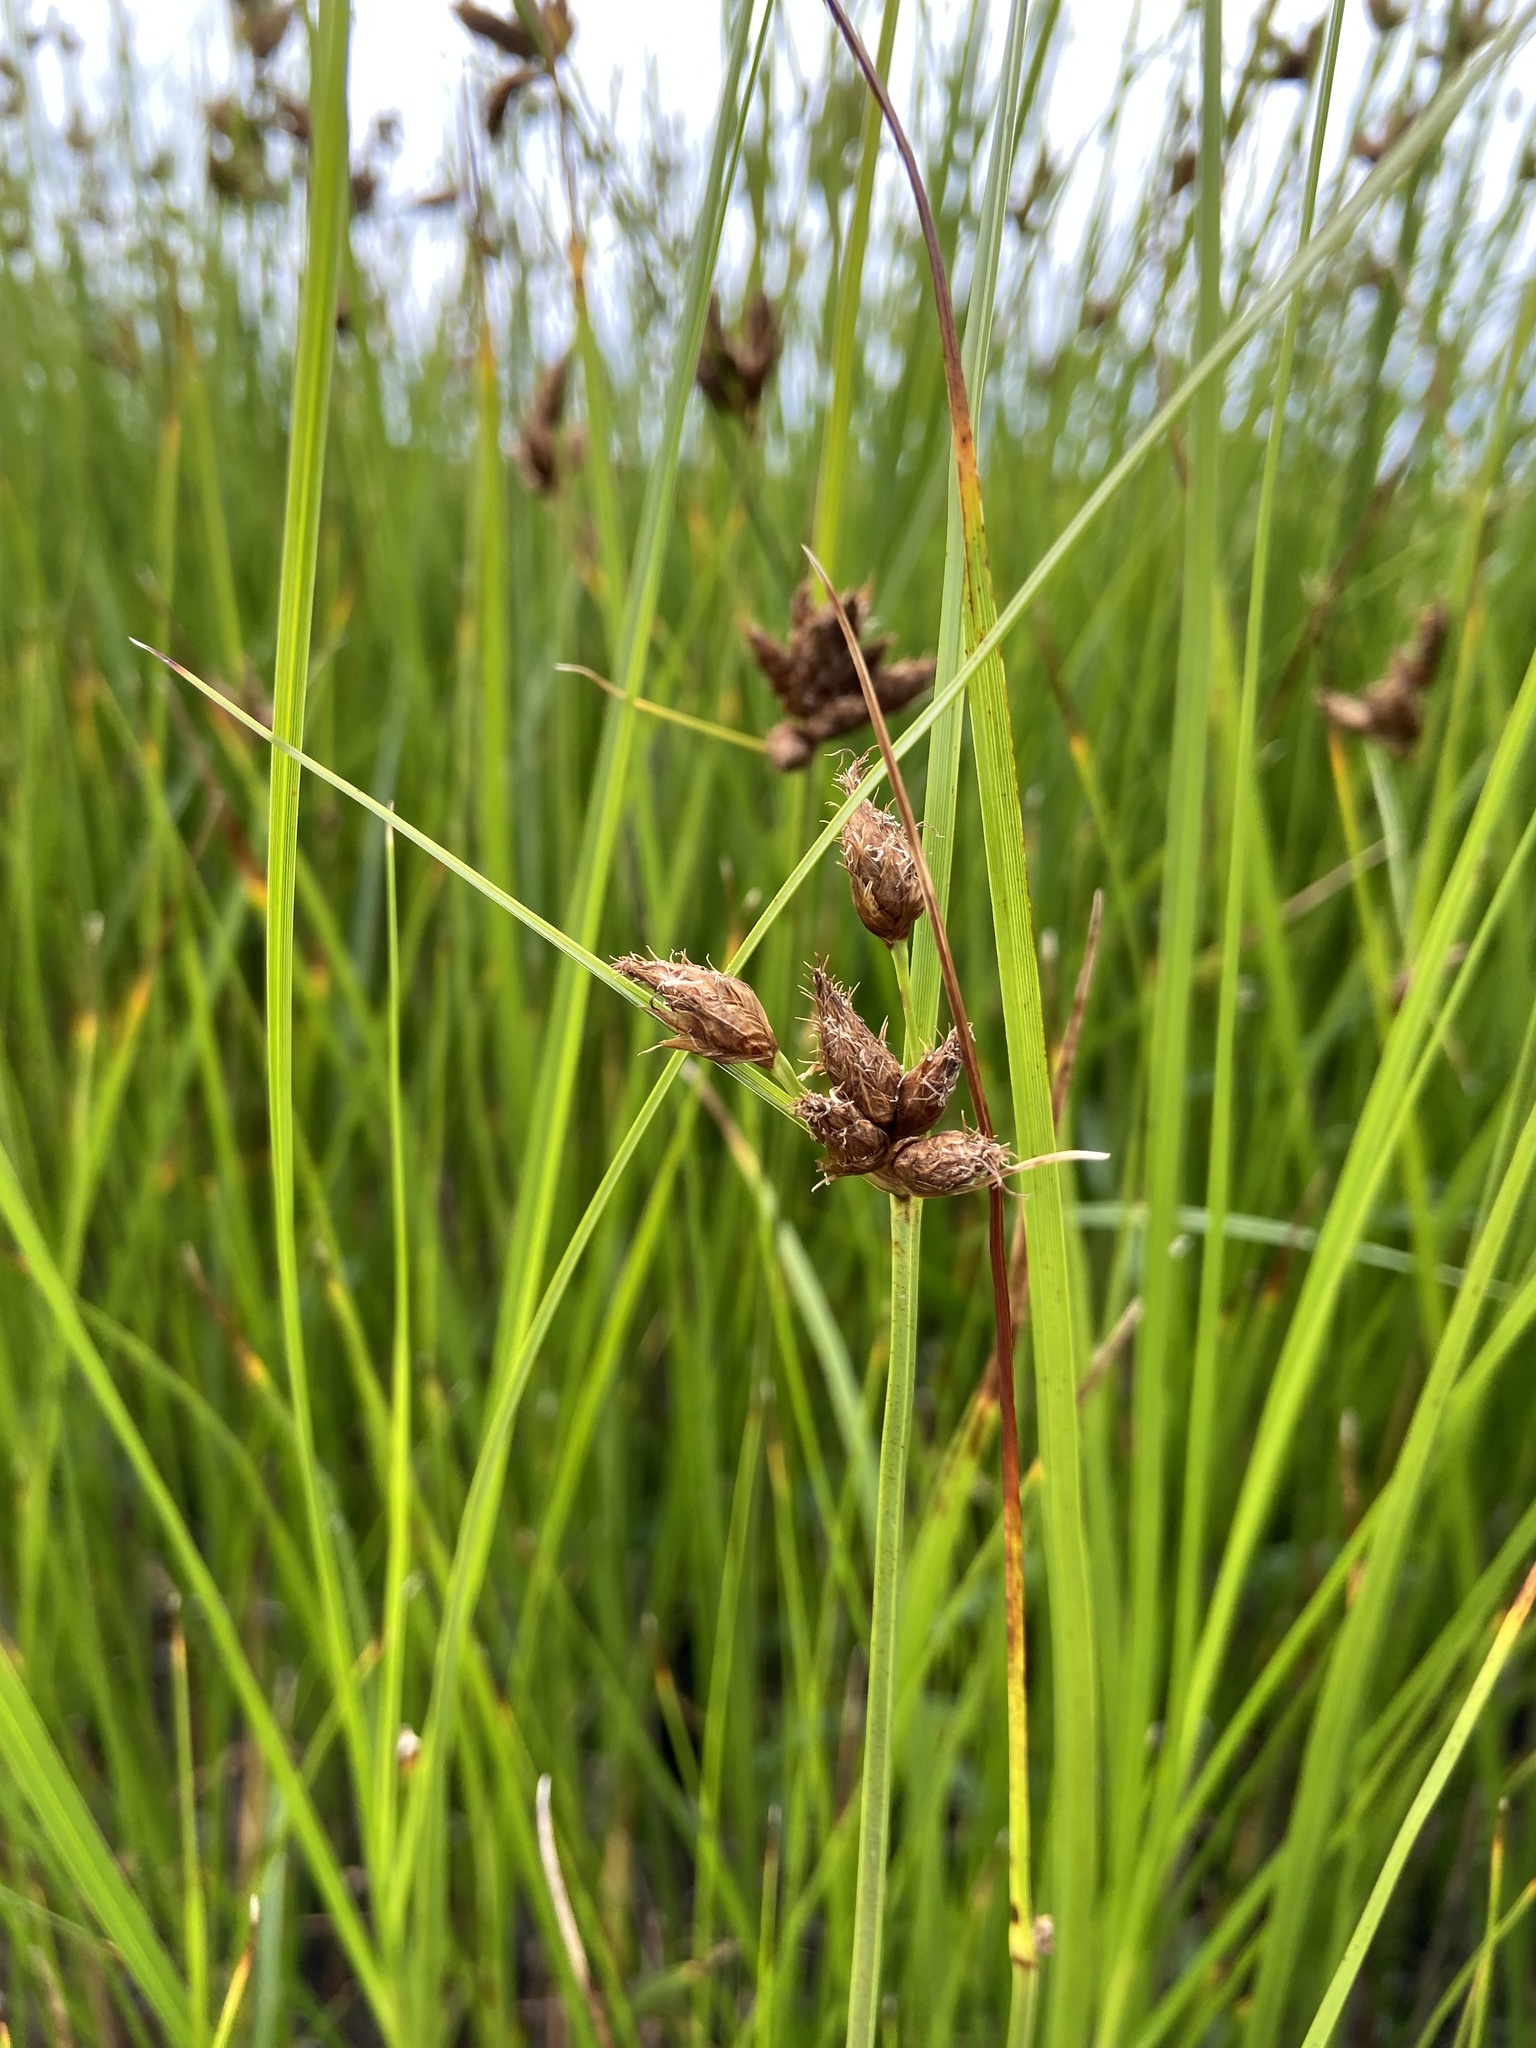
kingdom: Plantae
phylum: Tracheophyta
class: Liliopsida
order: Poales
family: Cyperaceae
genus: Bolboschoenus
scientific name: Bolboschoenus maritimus
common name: Sea club-rush
